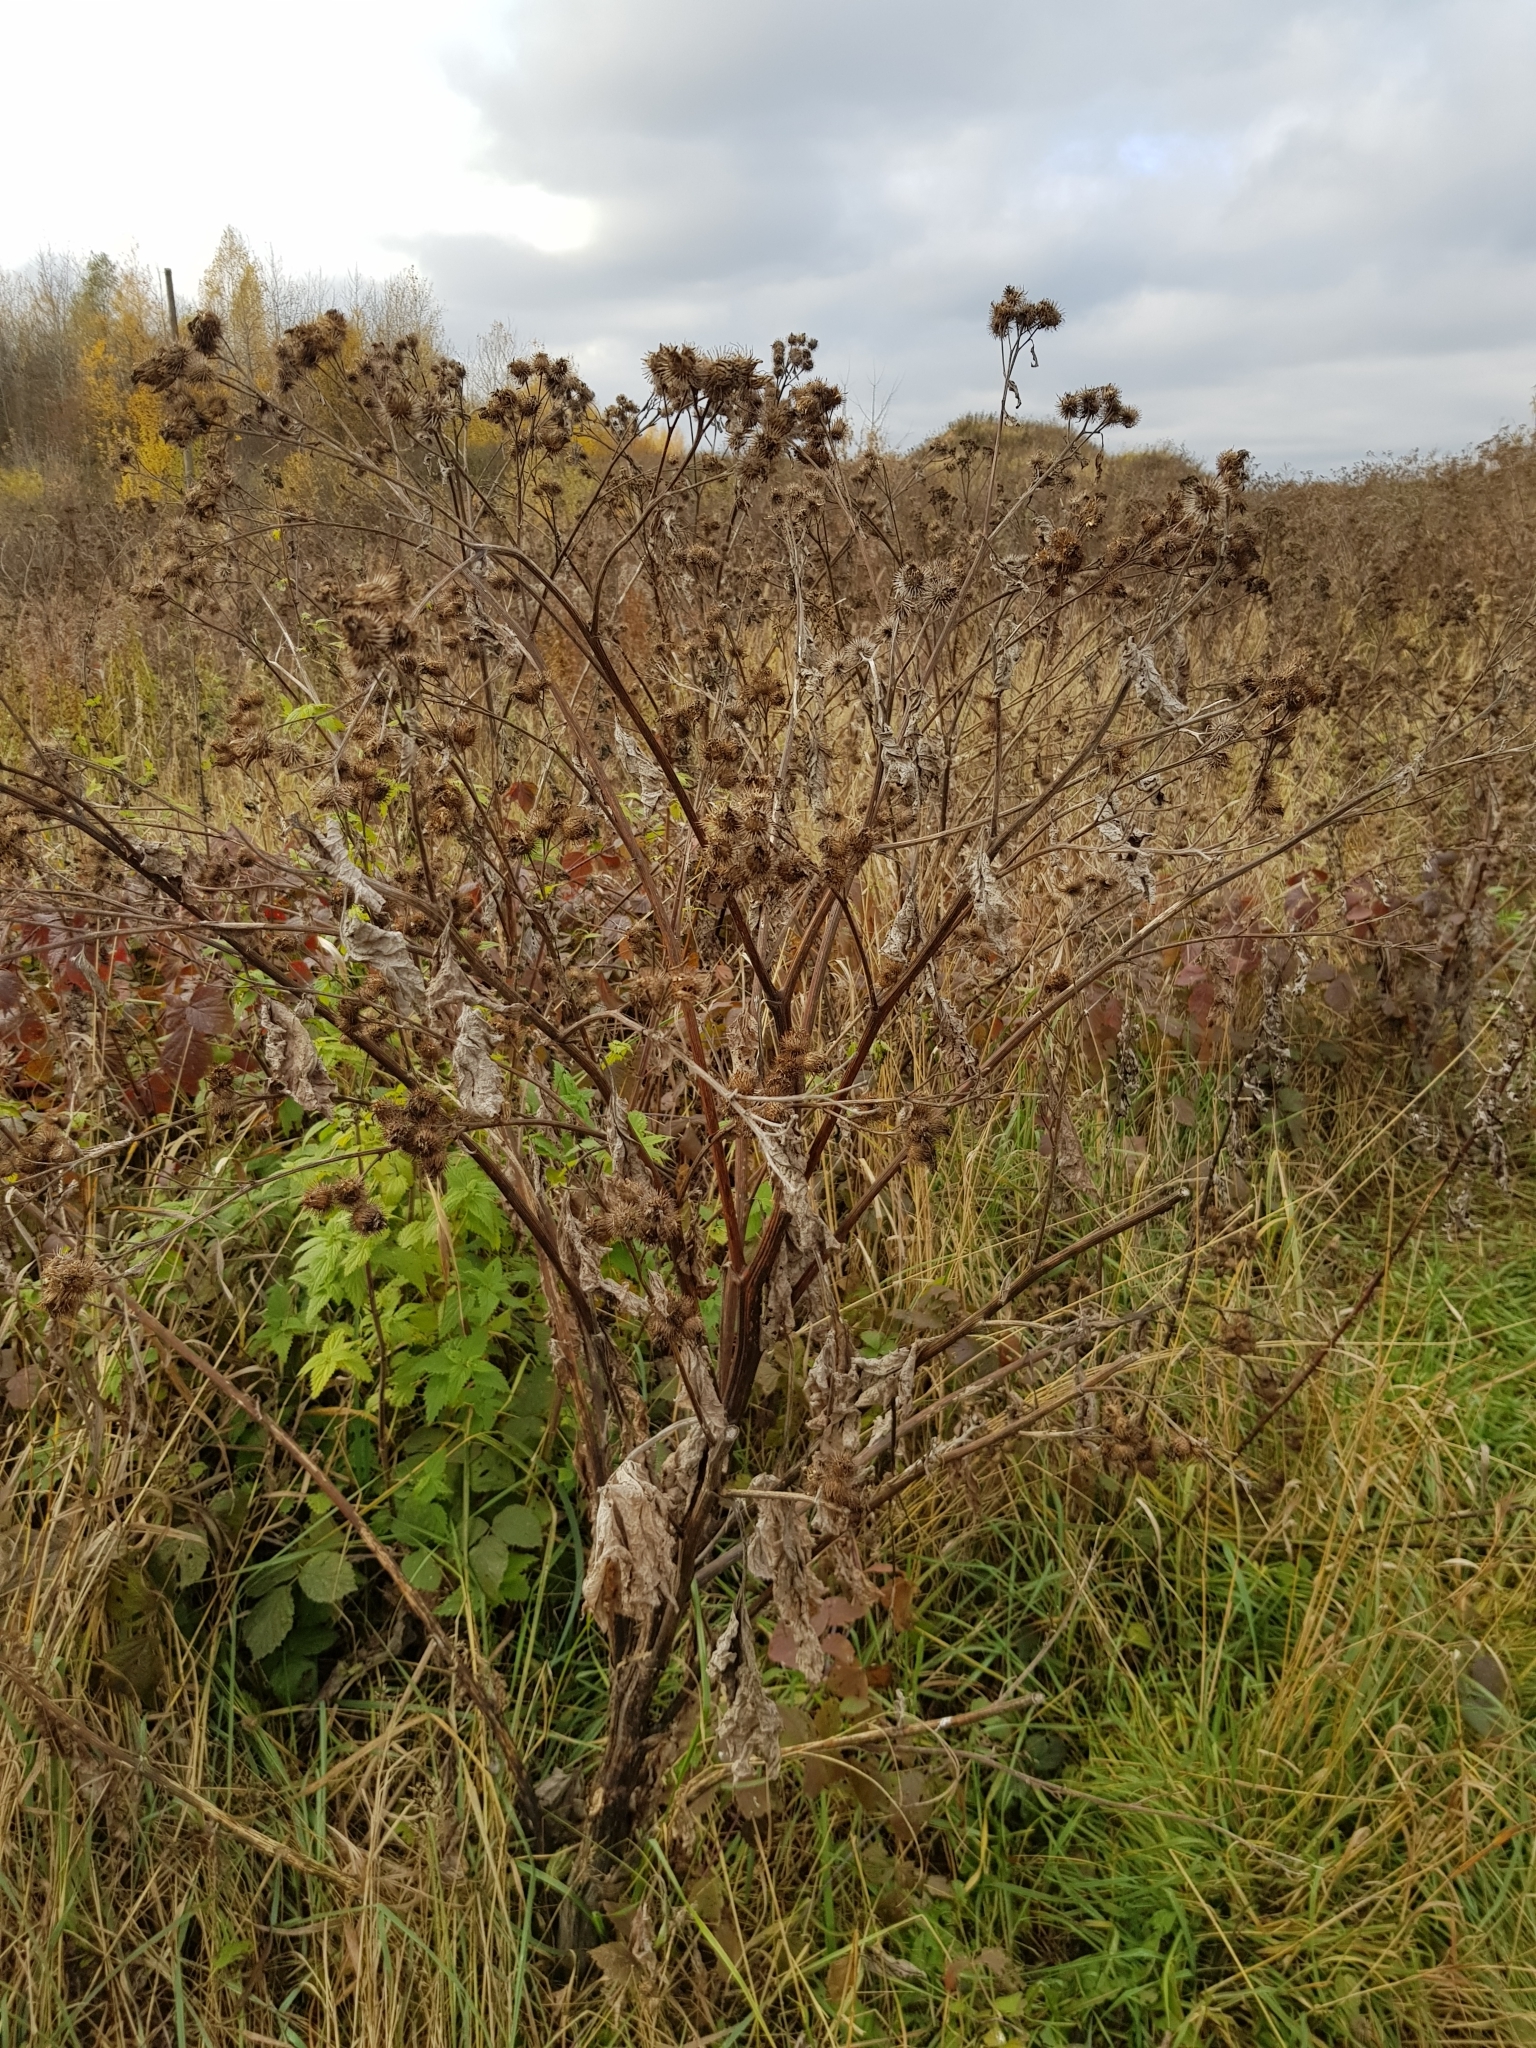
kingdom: Plantae
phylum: Tracheophyta
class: Magnoliopsida
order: Asterales
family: Asteraceae
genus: Arctium
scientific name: Arctium tomentosum
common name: Woolly burdock
